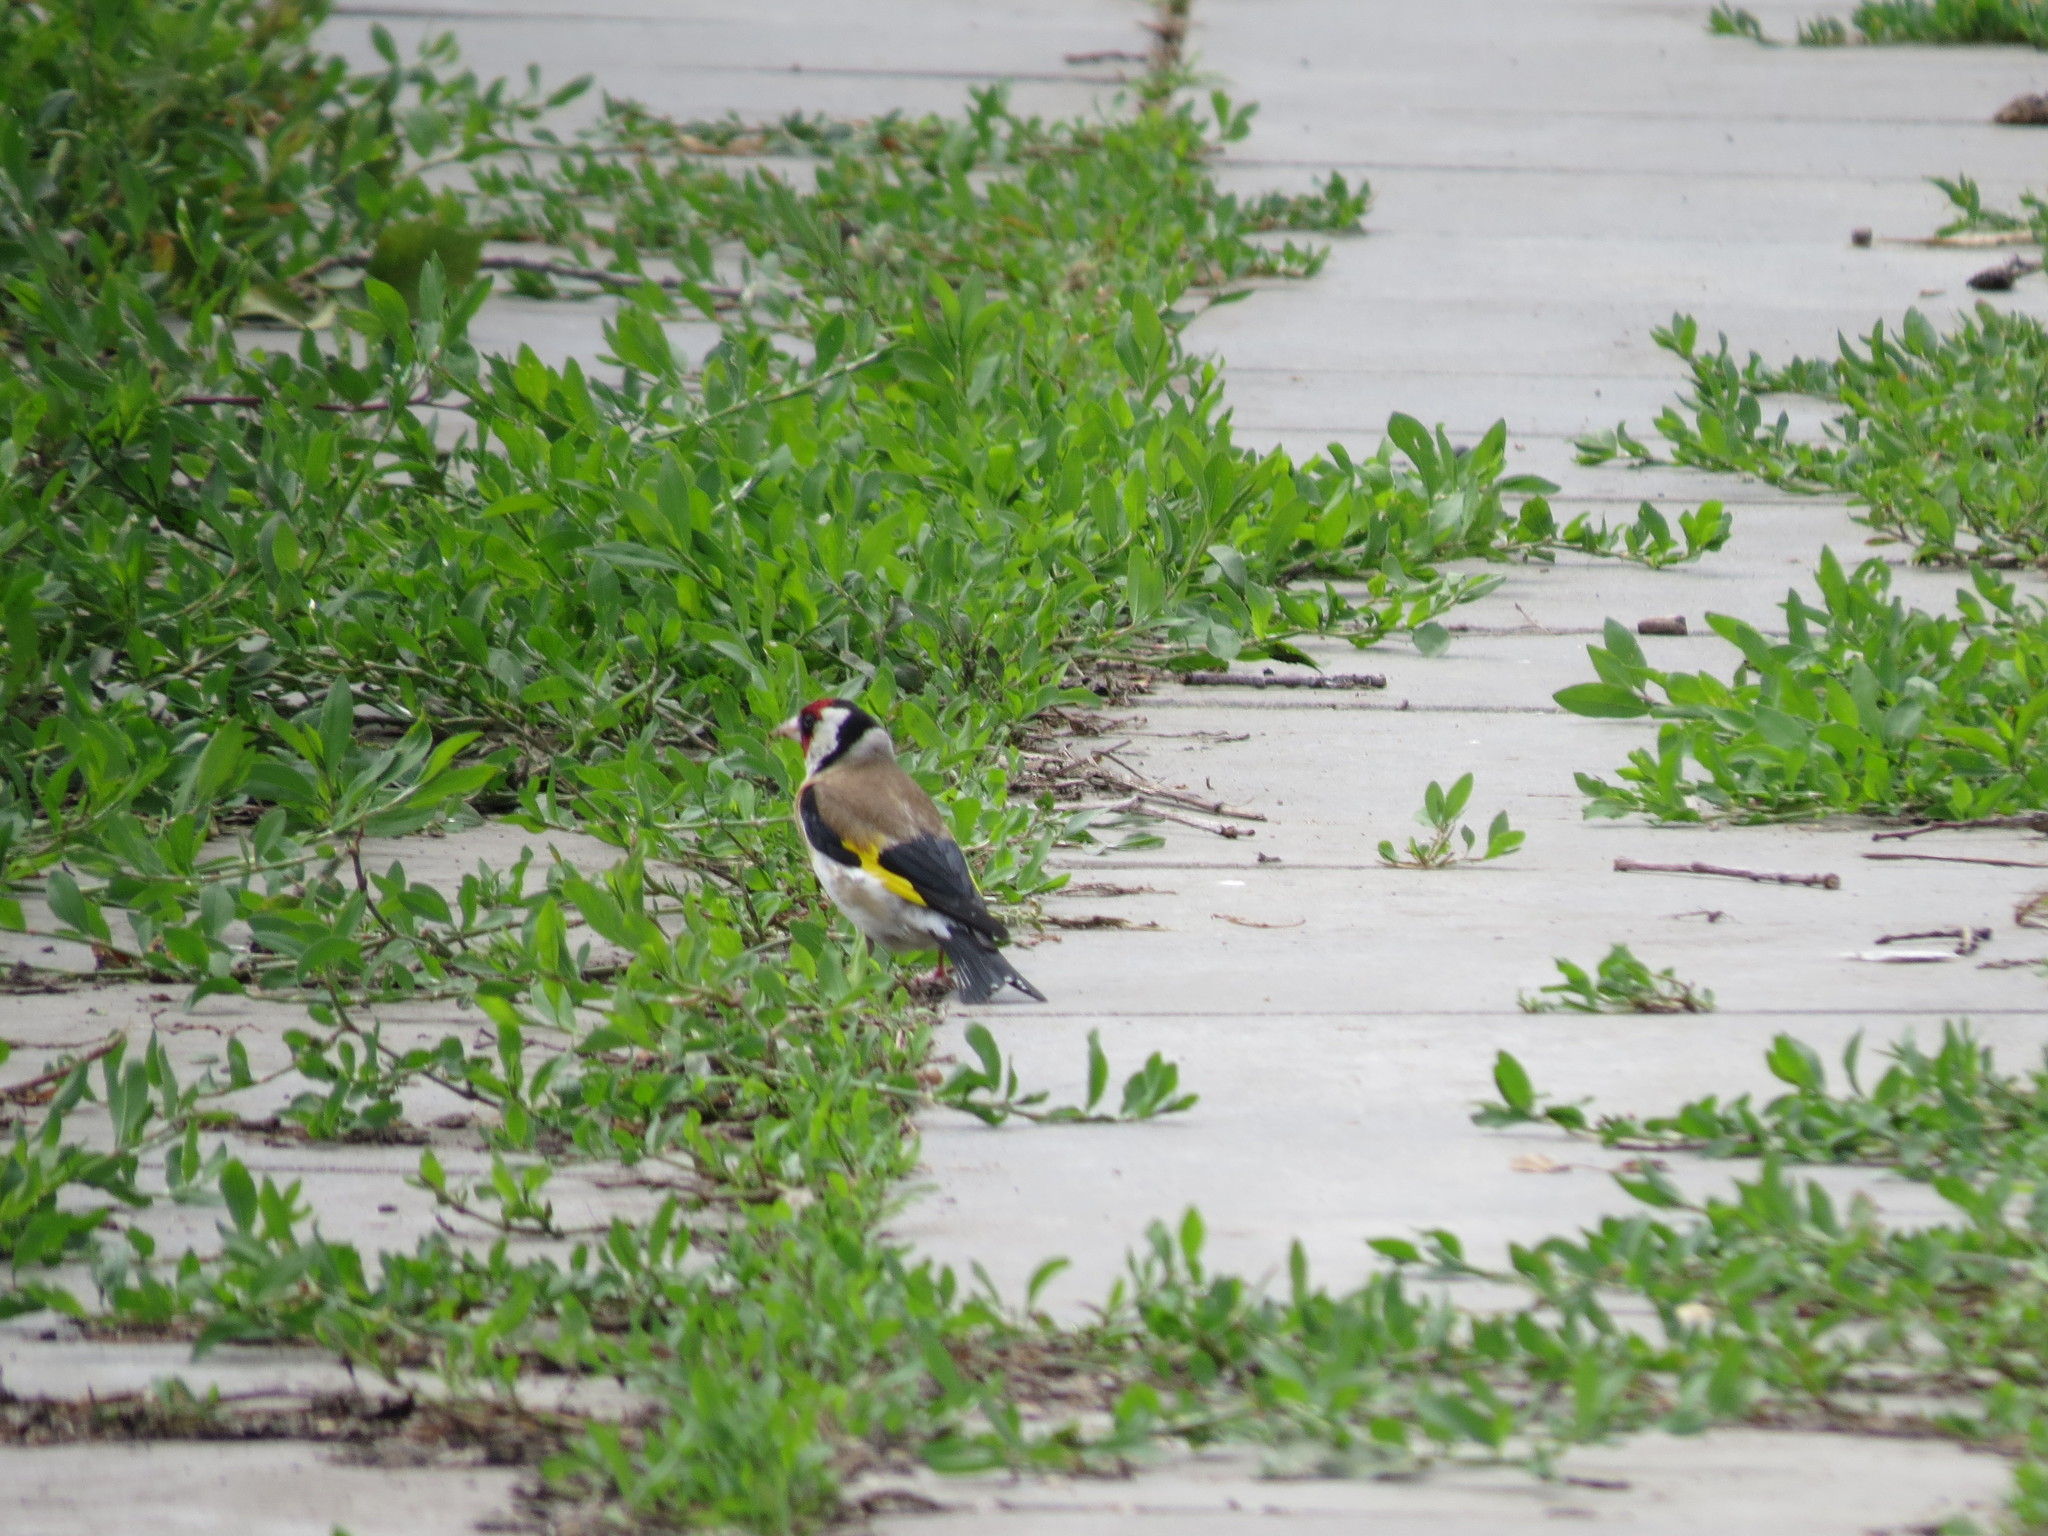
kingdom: Animalia
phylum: Chordata
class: Aves
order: Passeriformes
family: Fringillidae
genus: Carduelis
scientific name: Carduelis carduelis
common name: European goldfinch
